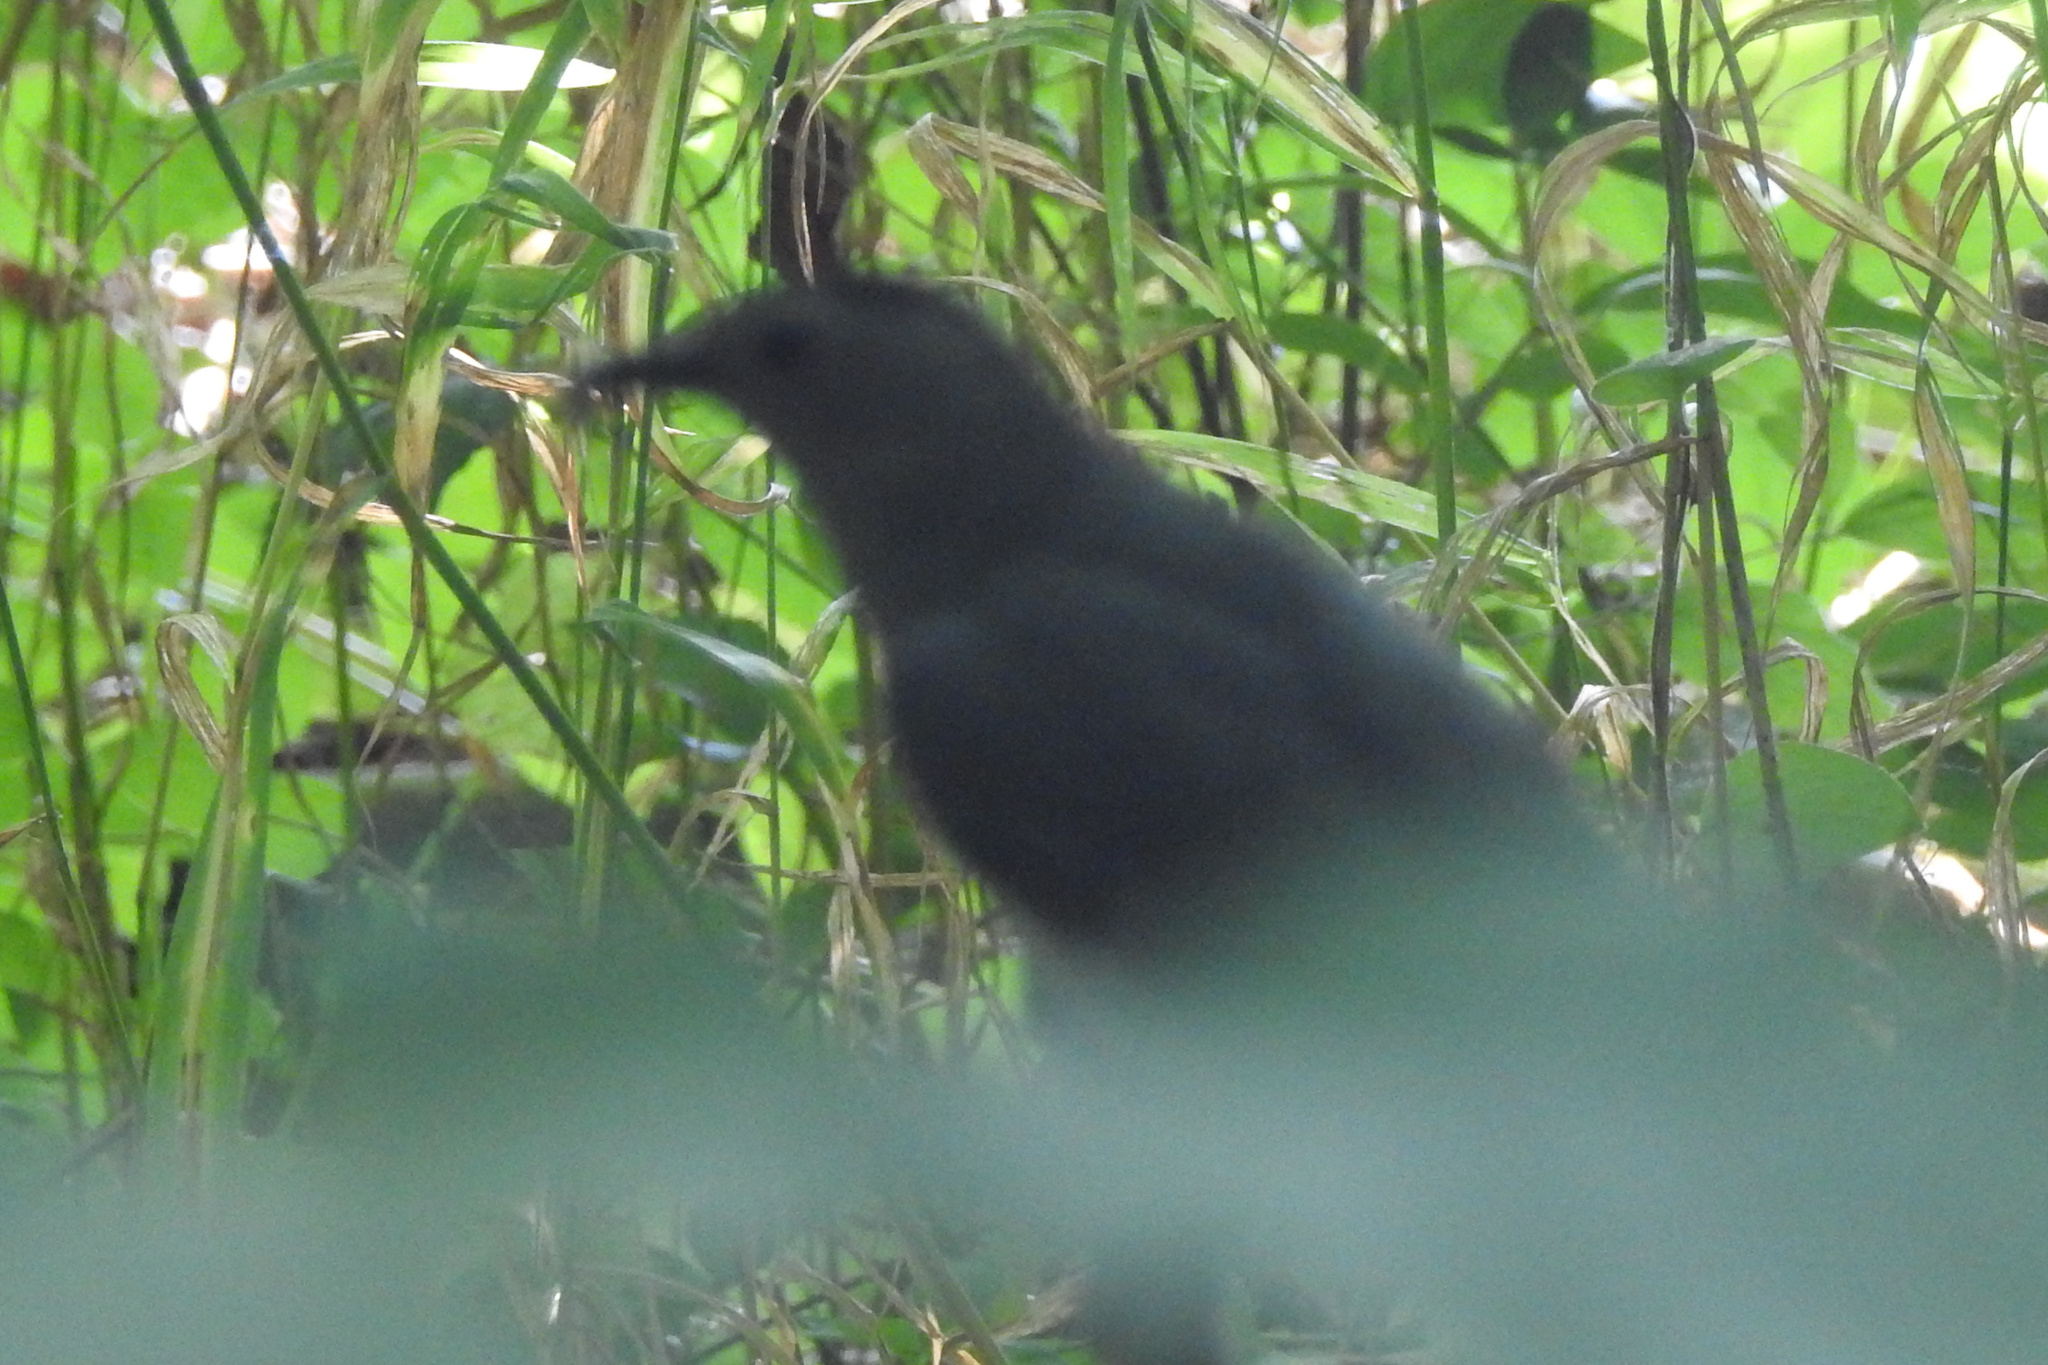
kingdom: Animalia
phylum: Chordata
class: Aves
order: Passeriformes
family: Mimidae
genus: Dumetella
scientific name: Dumetella carolinensis
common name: Gray catbird
